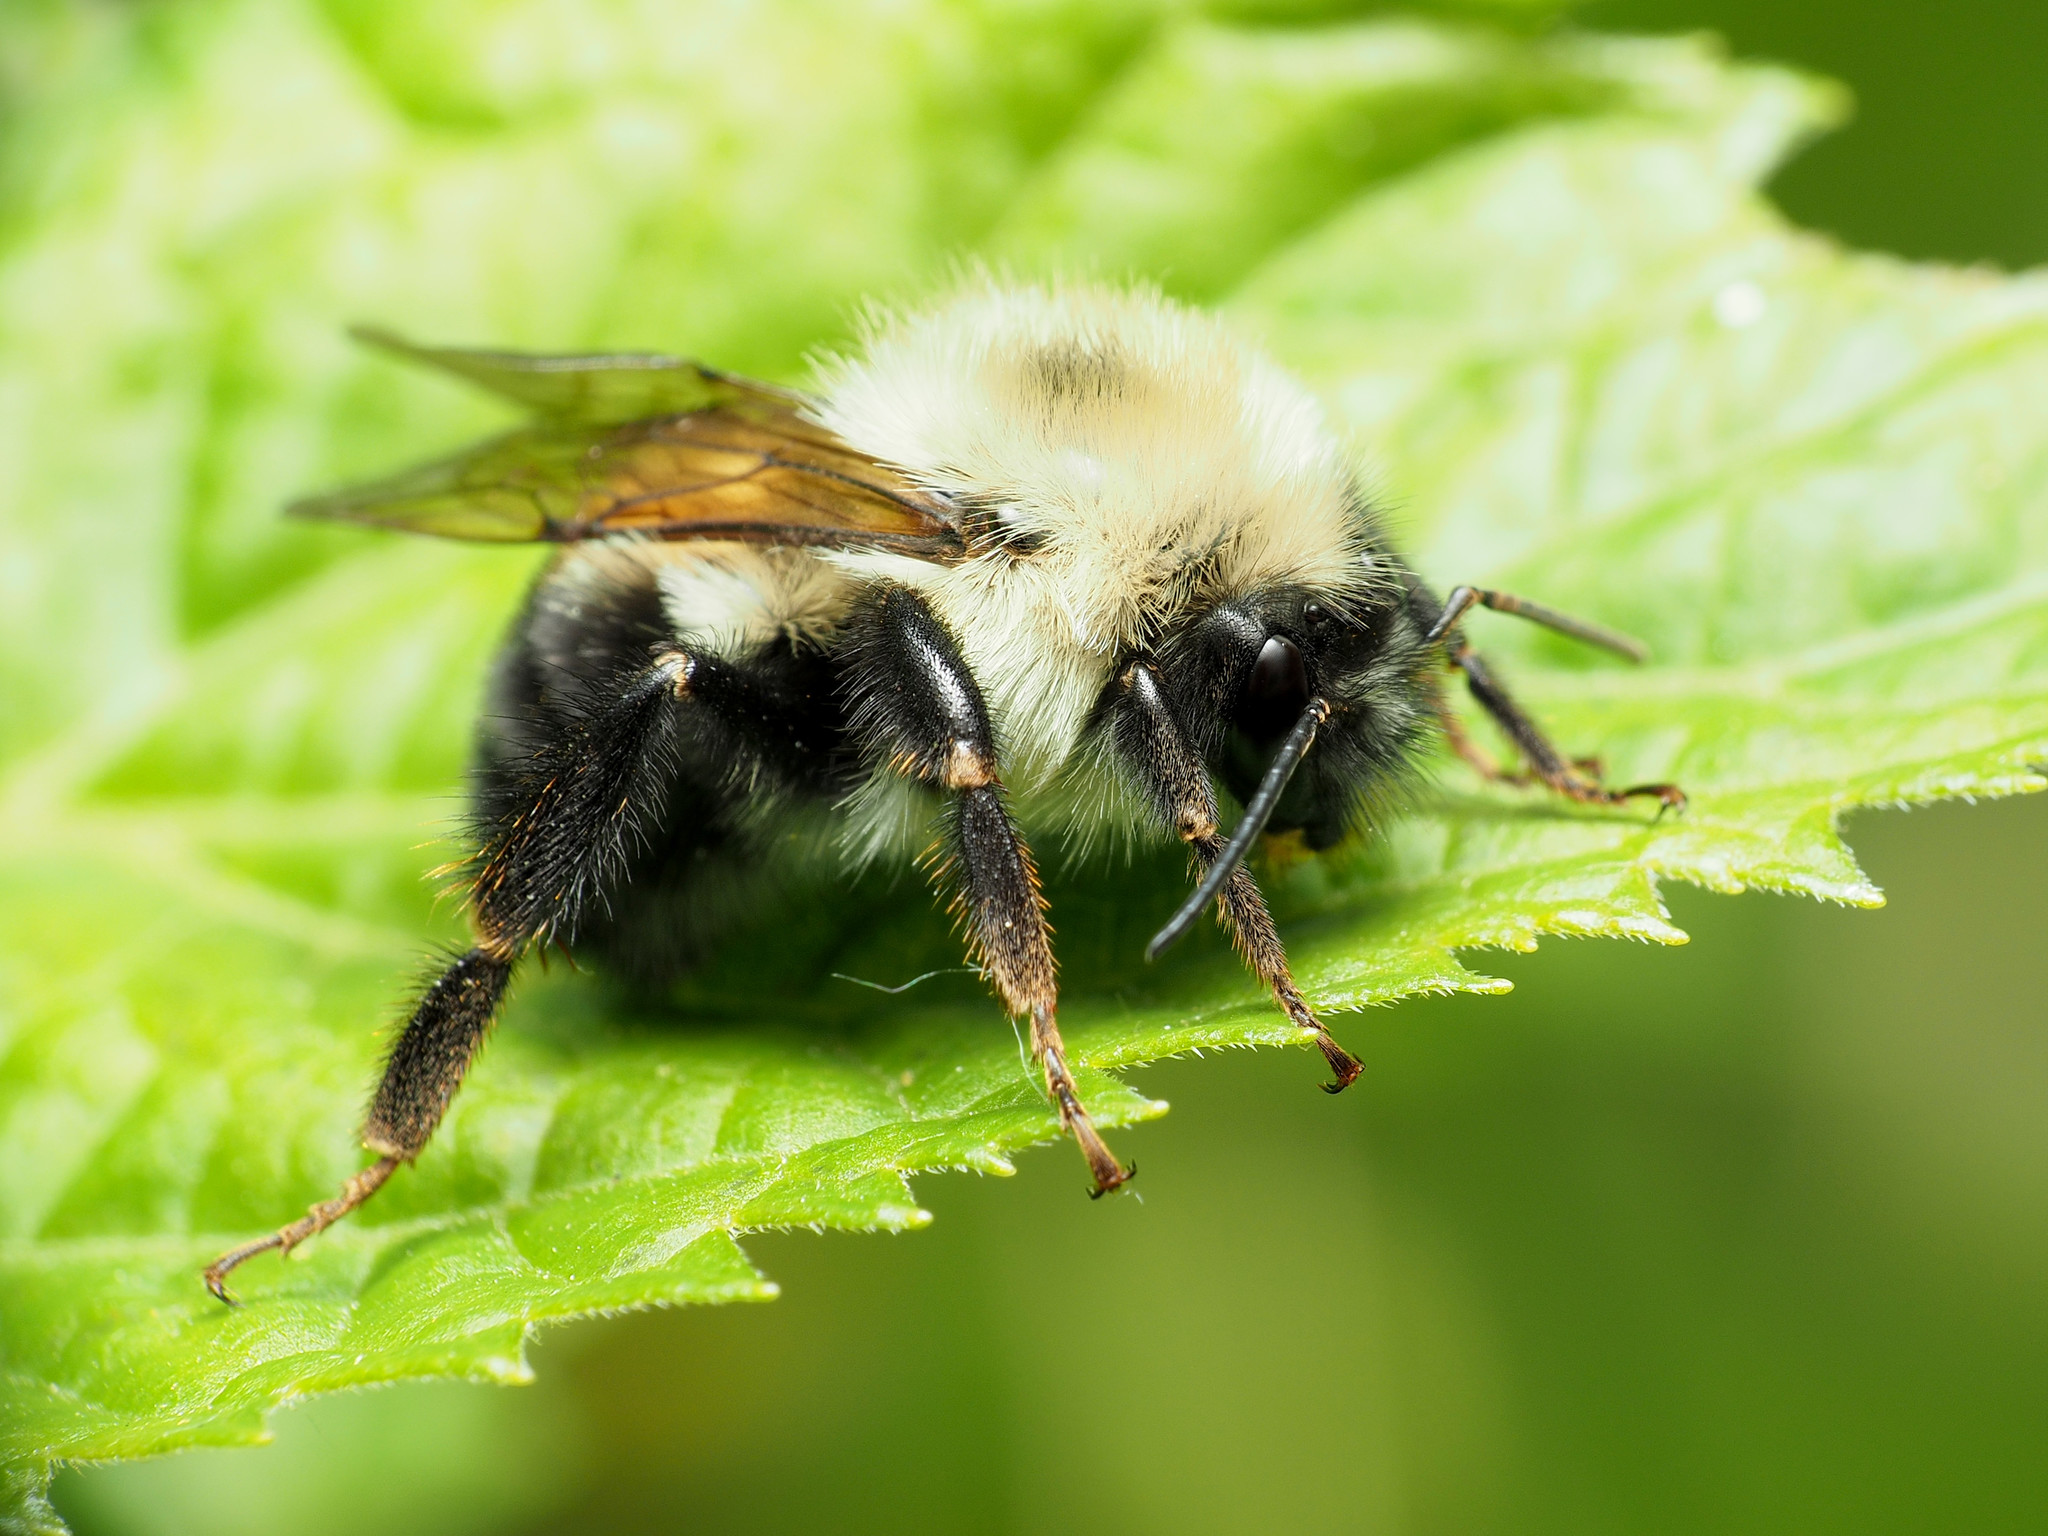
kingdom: Animalia
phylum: Arthropoda
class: Insecta
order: Hymenoptera
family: Apidae
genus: Bombus
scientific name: Bombus bimaculatus
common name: Two-spotted bumble bee
